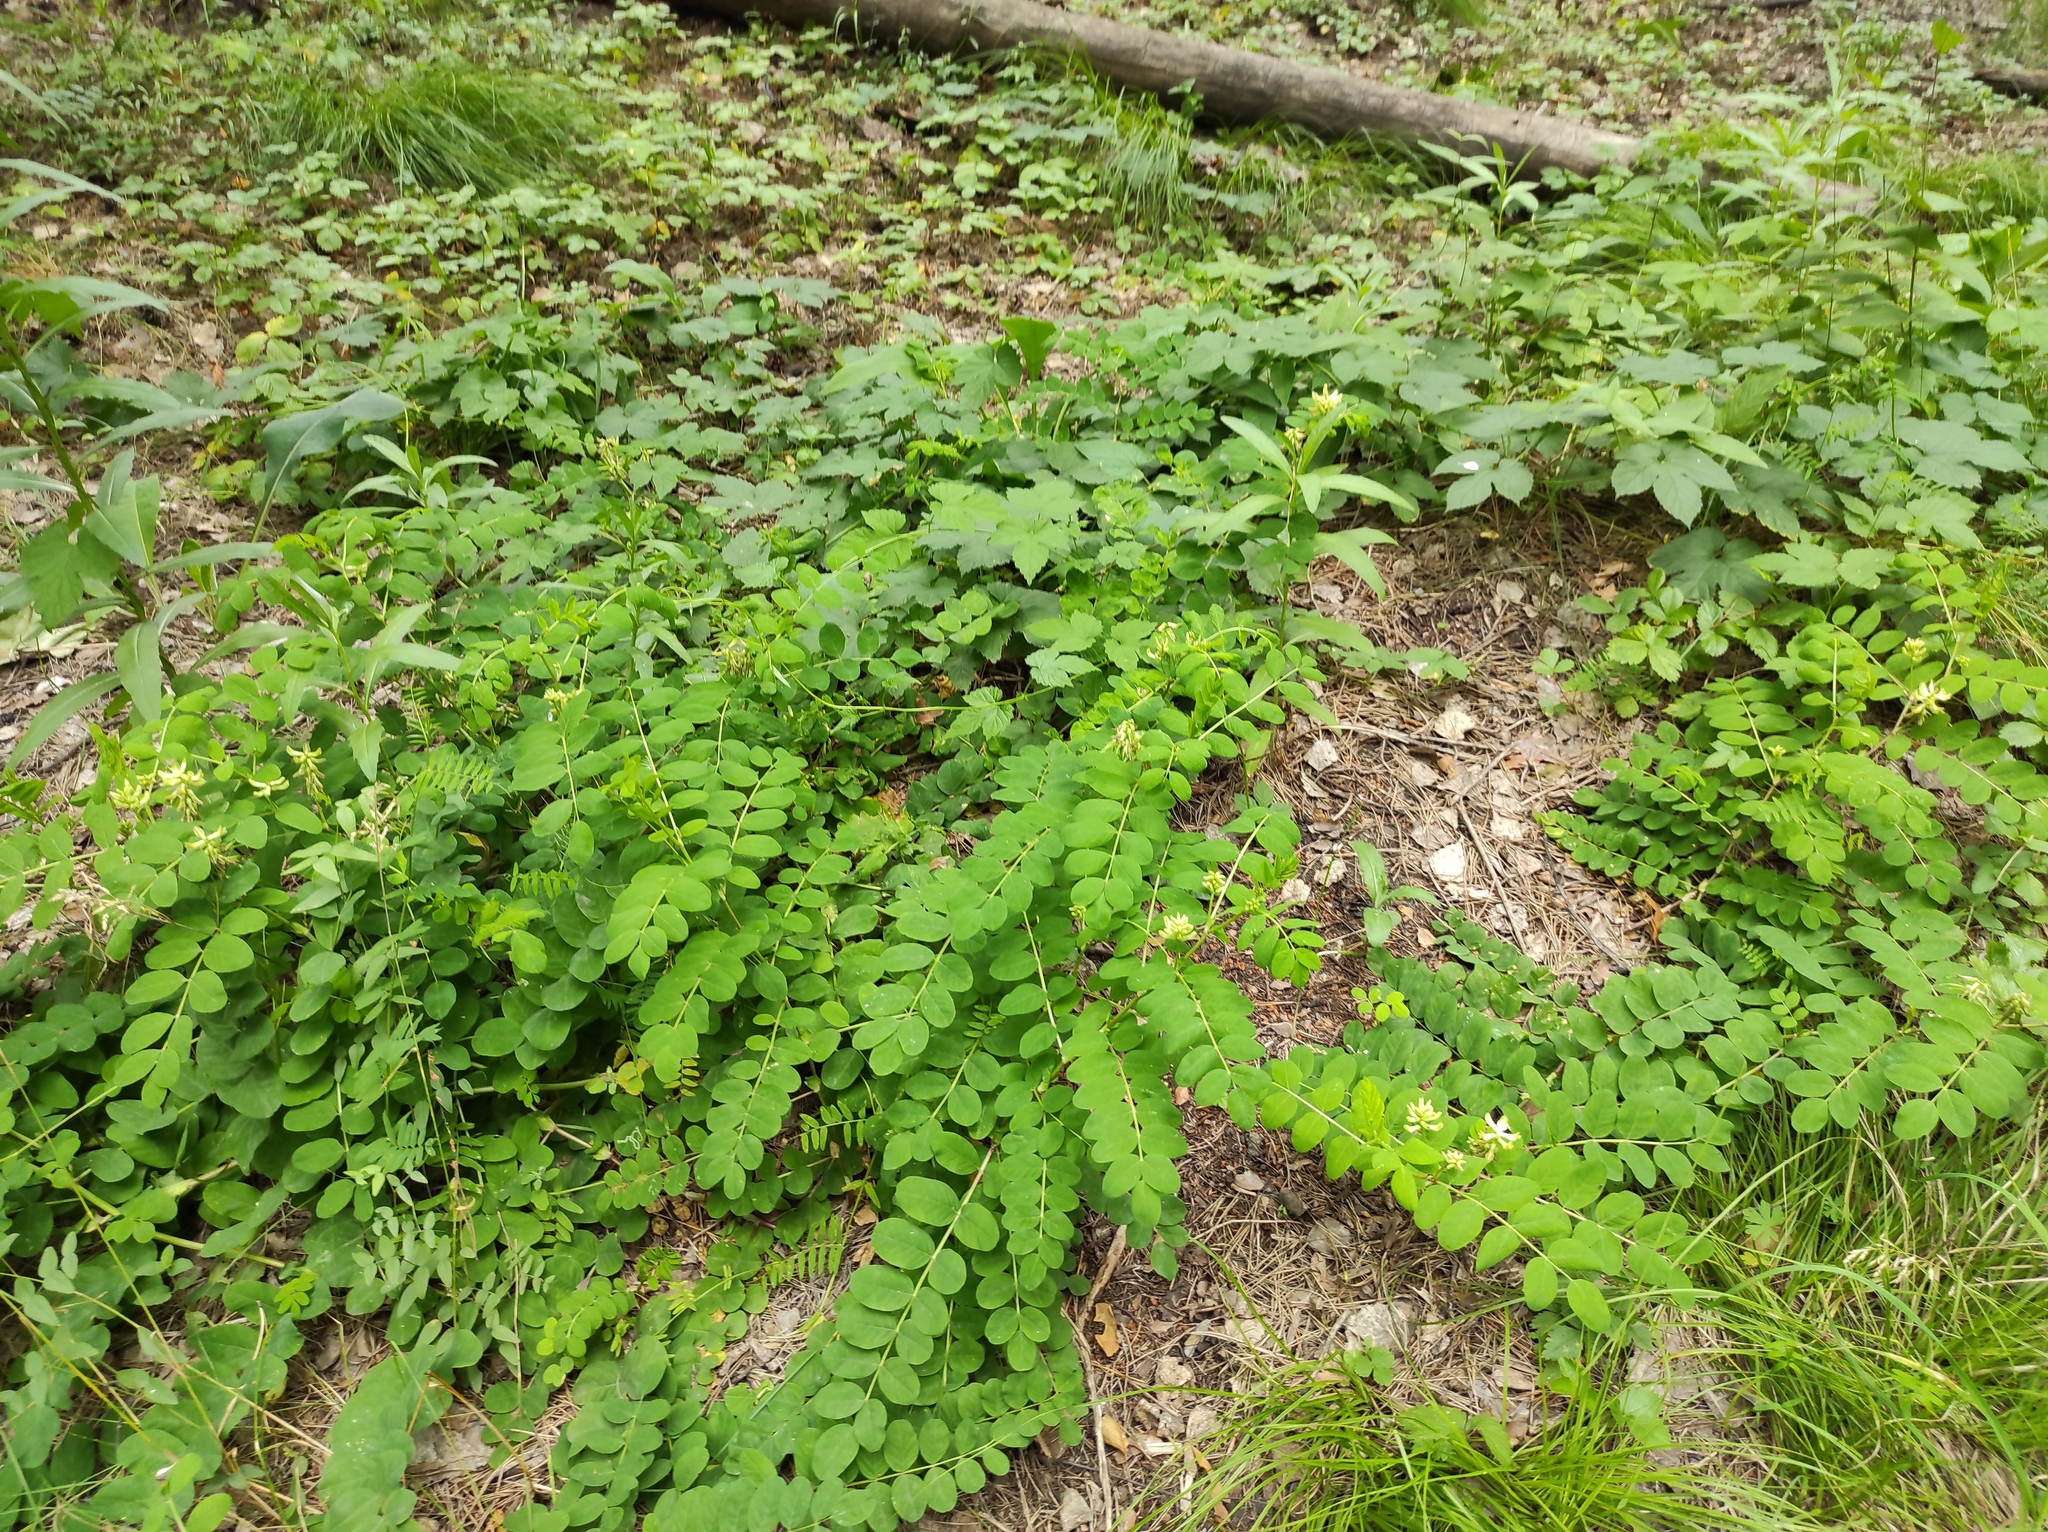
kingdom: Plantae
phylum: Tracheophyta
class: Magnoliopsida
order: Fabales
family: Fabaceae
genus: Astragalus
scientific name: Astragalus glycyphyllos
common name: Wild liquorice
